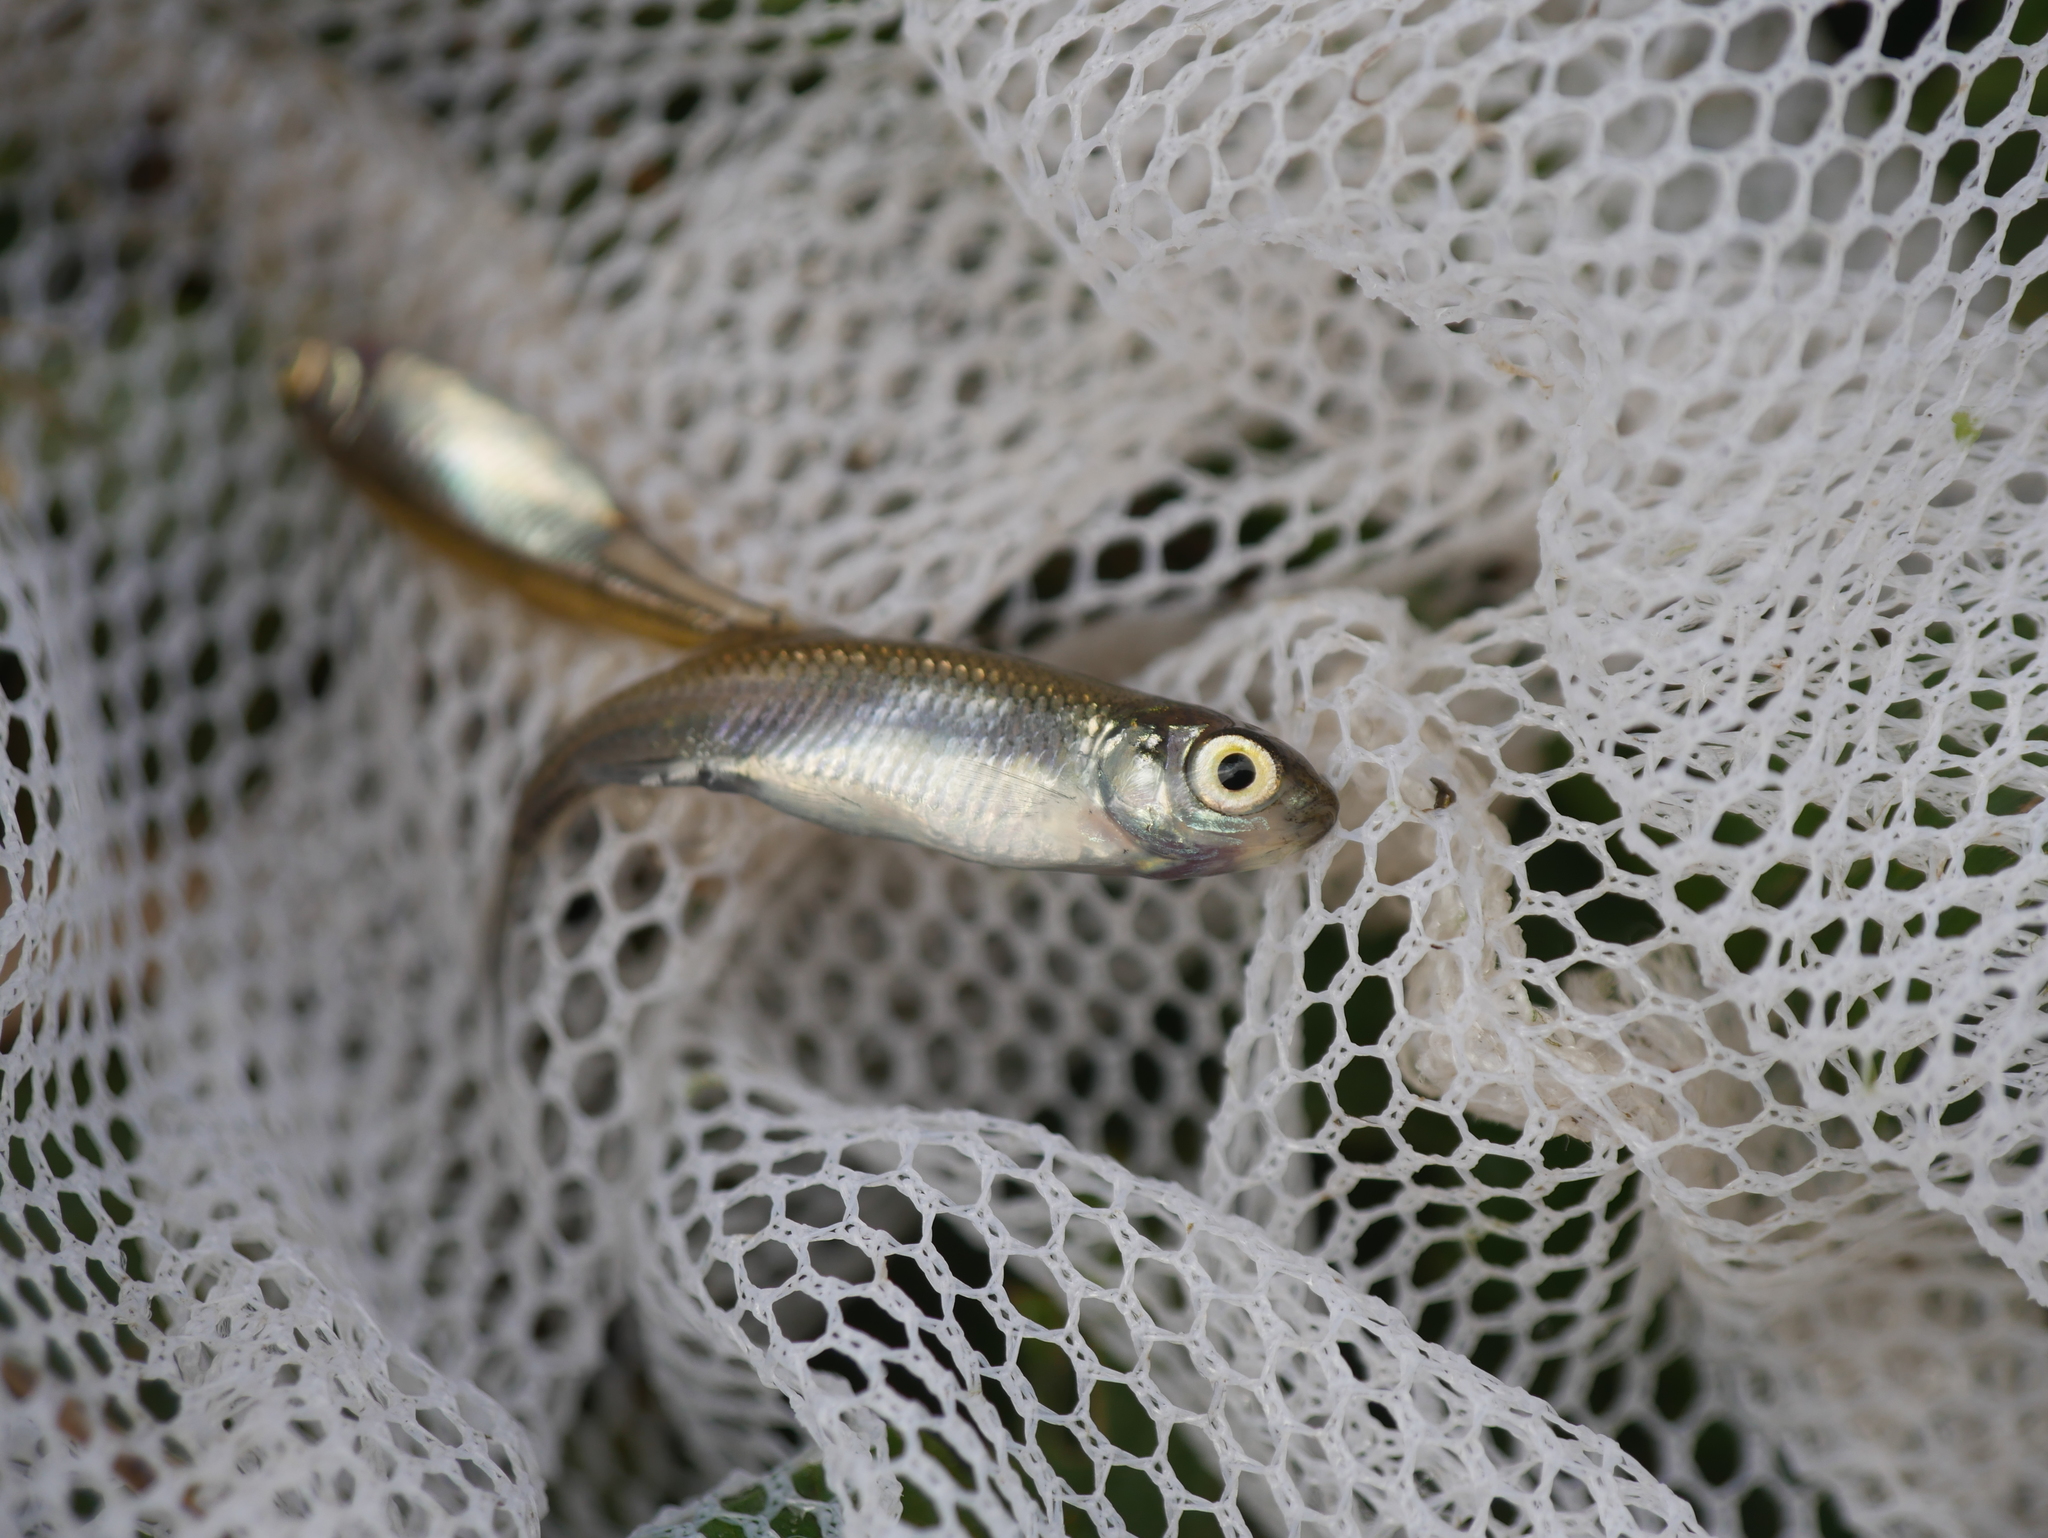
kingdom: Animalia
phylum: Chordata
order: Cypriniformes
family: Cyprinidae
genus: Alburnus
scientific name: Alburnus alburnus
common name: Bleak
